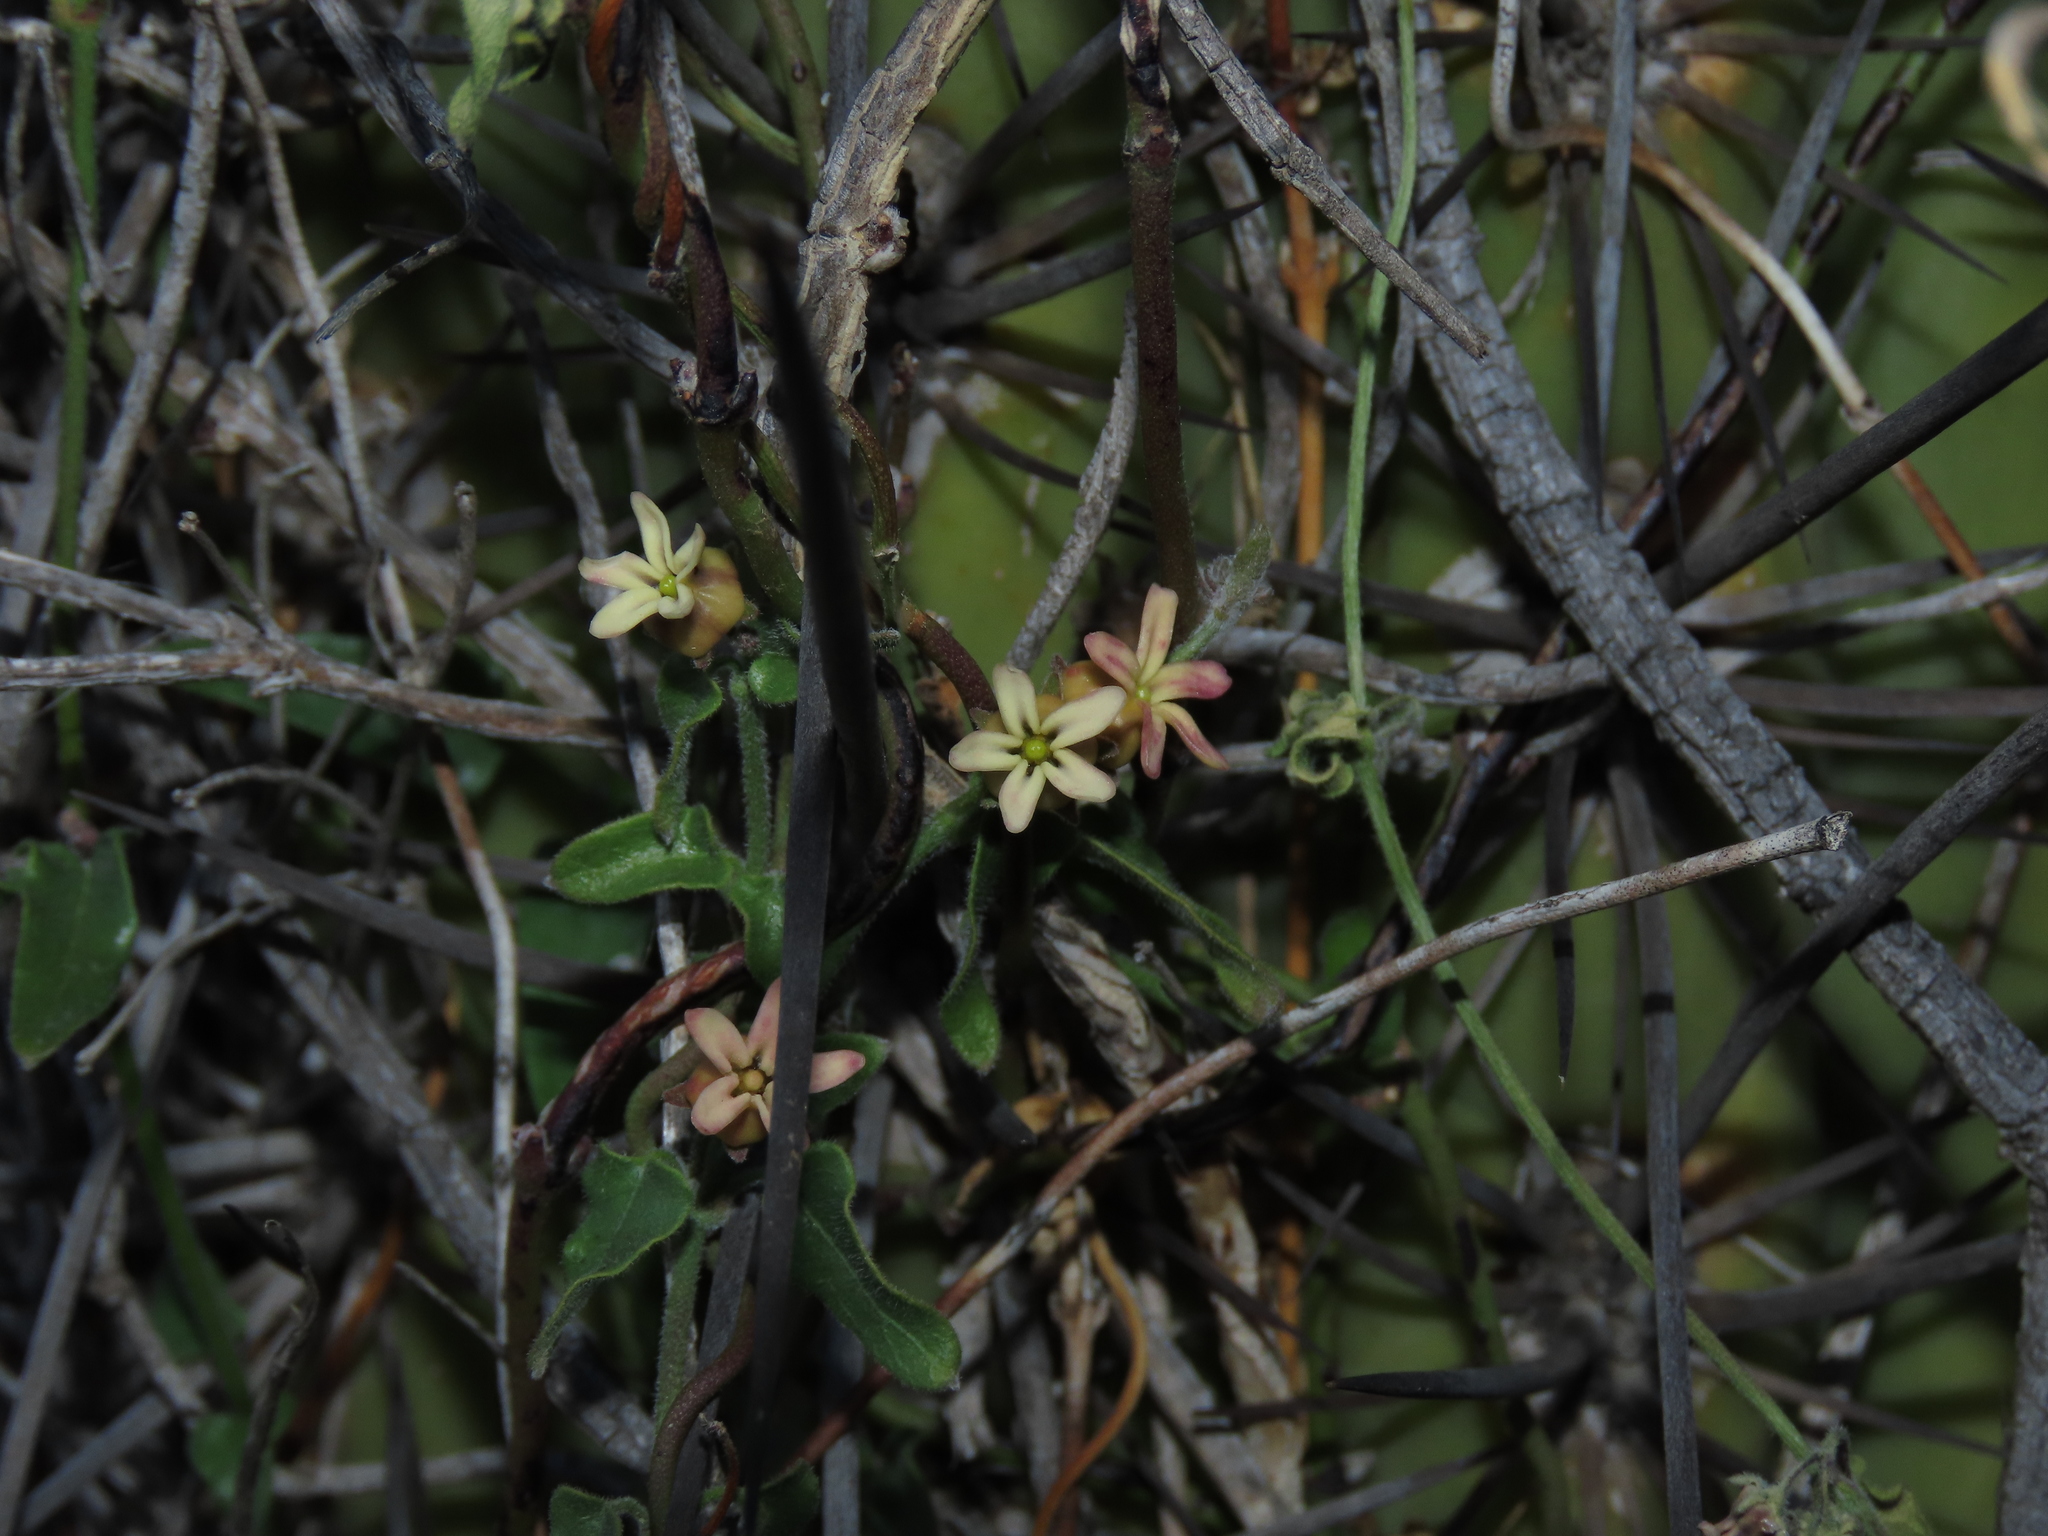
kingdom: Plantae
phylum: Tracheophyta
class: Magnoliopsida
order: Gentianales
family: Apocynaceae
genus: Diplolepis
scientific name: Diplolepis geminiflora
